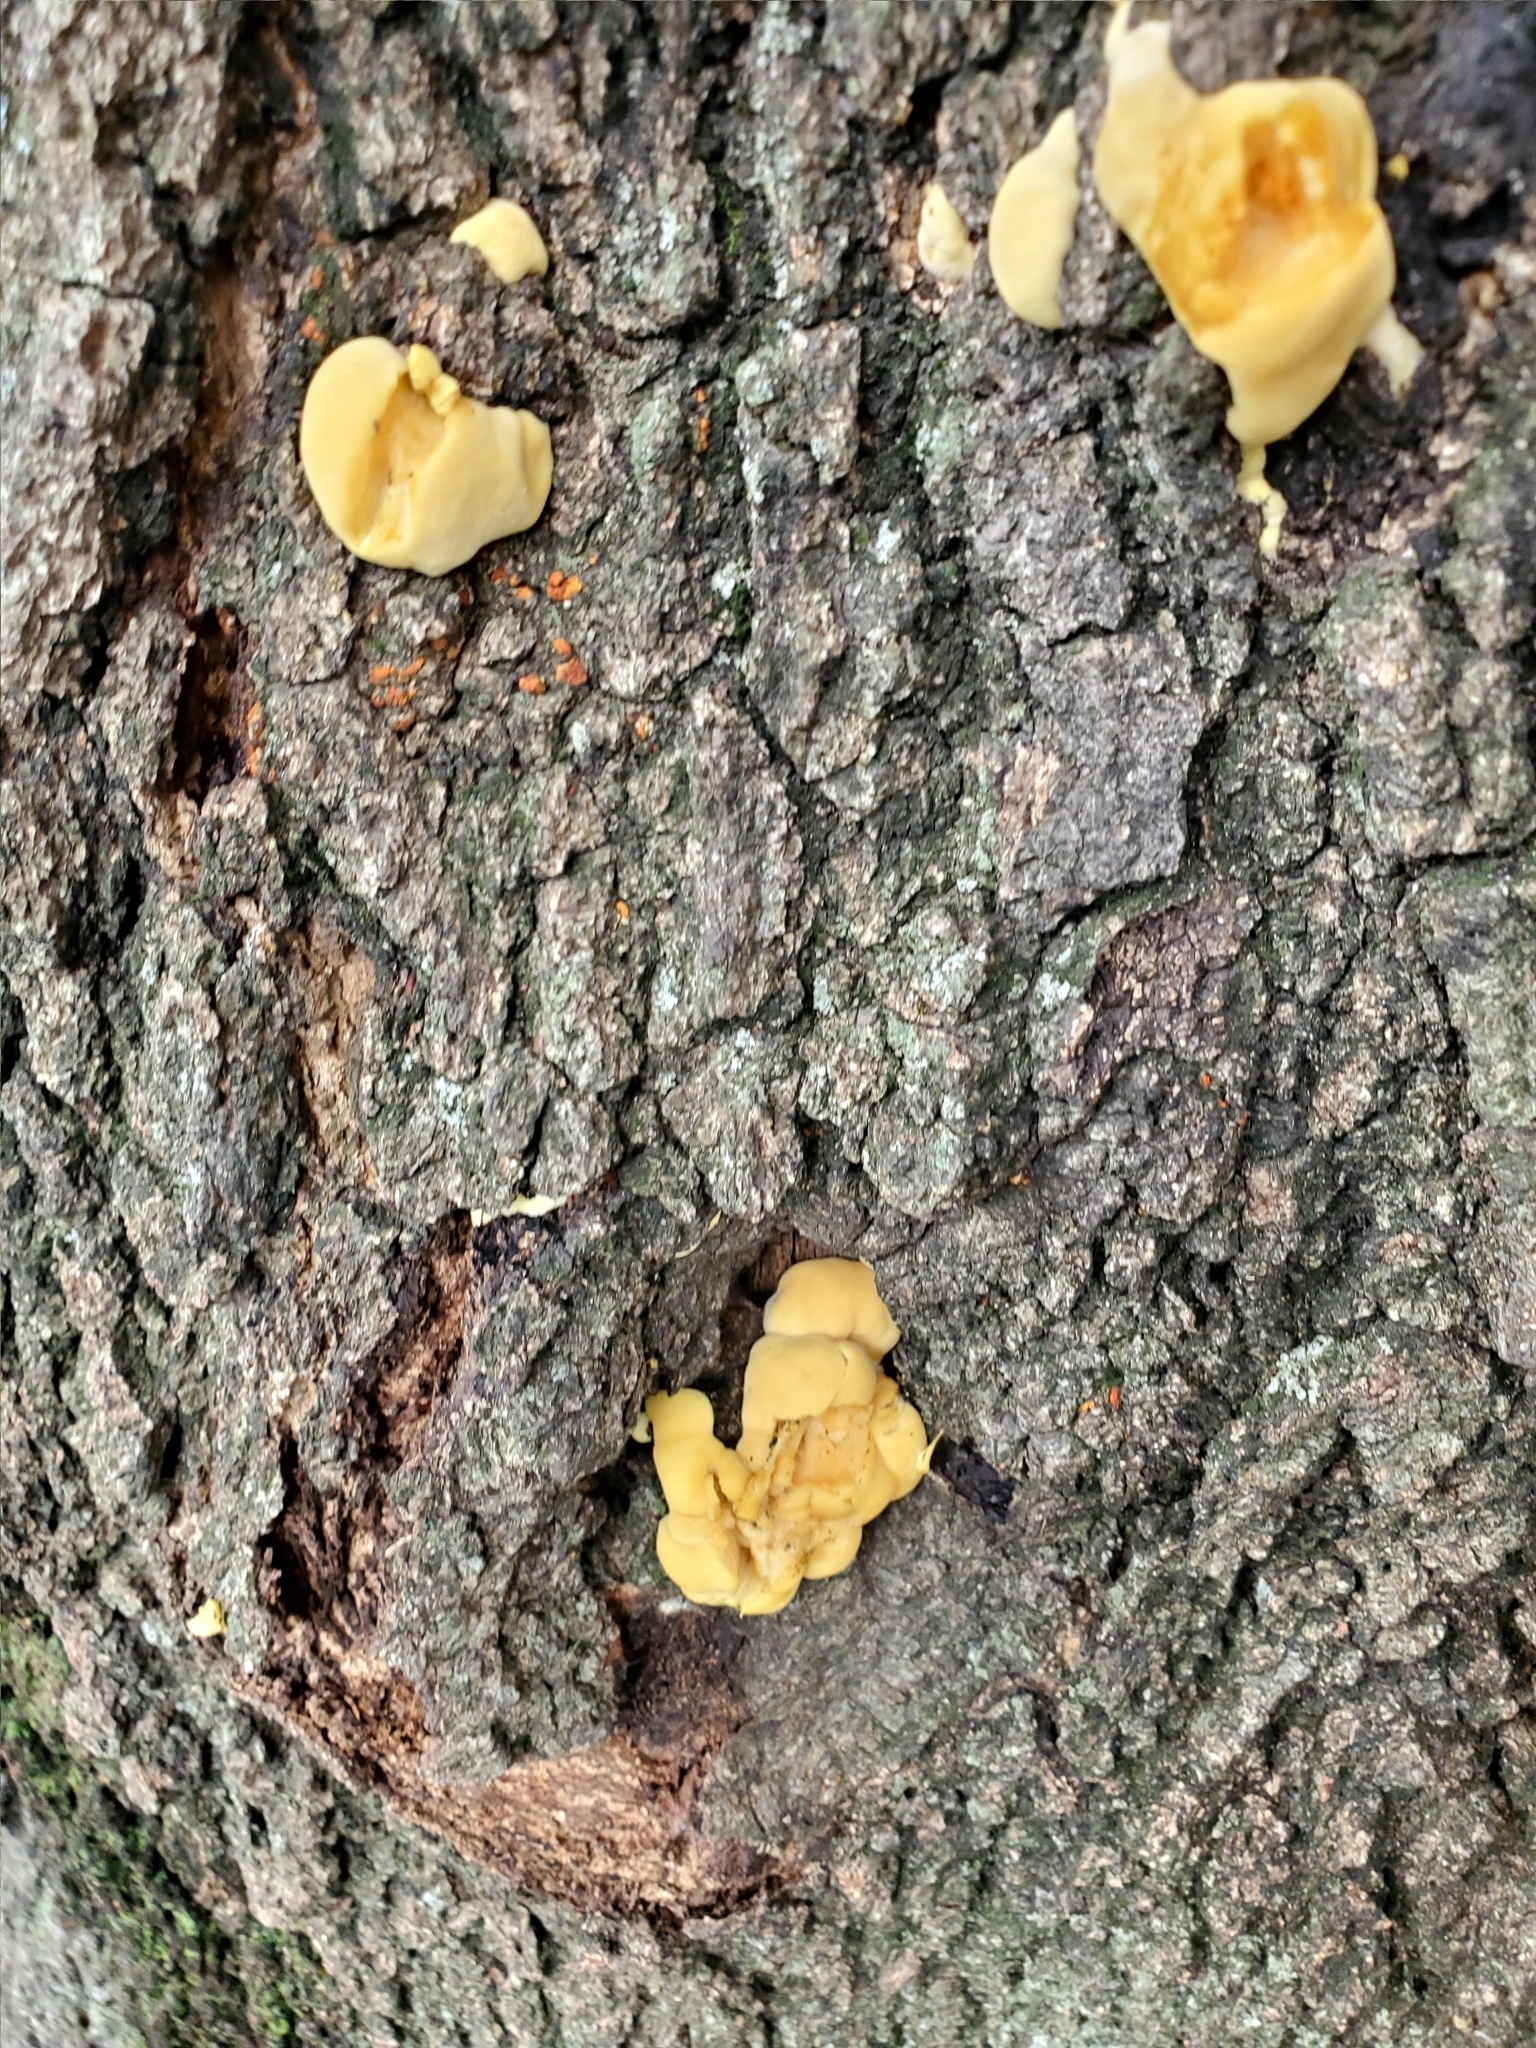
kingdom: Fungi
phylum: Basidiomycota
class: Agaricomycetes
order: Polyporales
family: Laetiporaceae
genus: Laetiporus
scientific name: Laetiporus sulphureus
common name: Chicken of the woods
